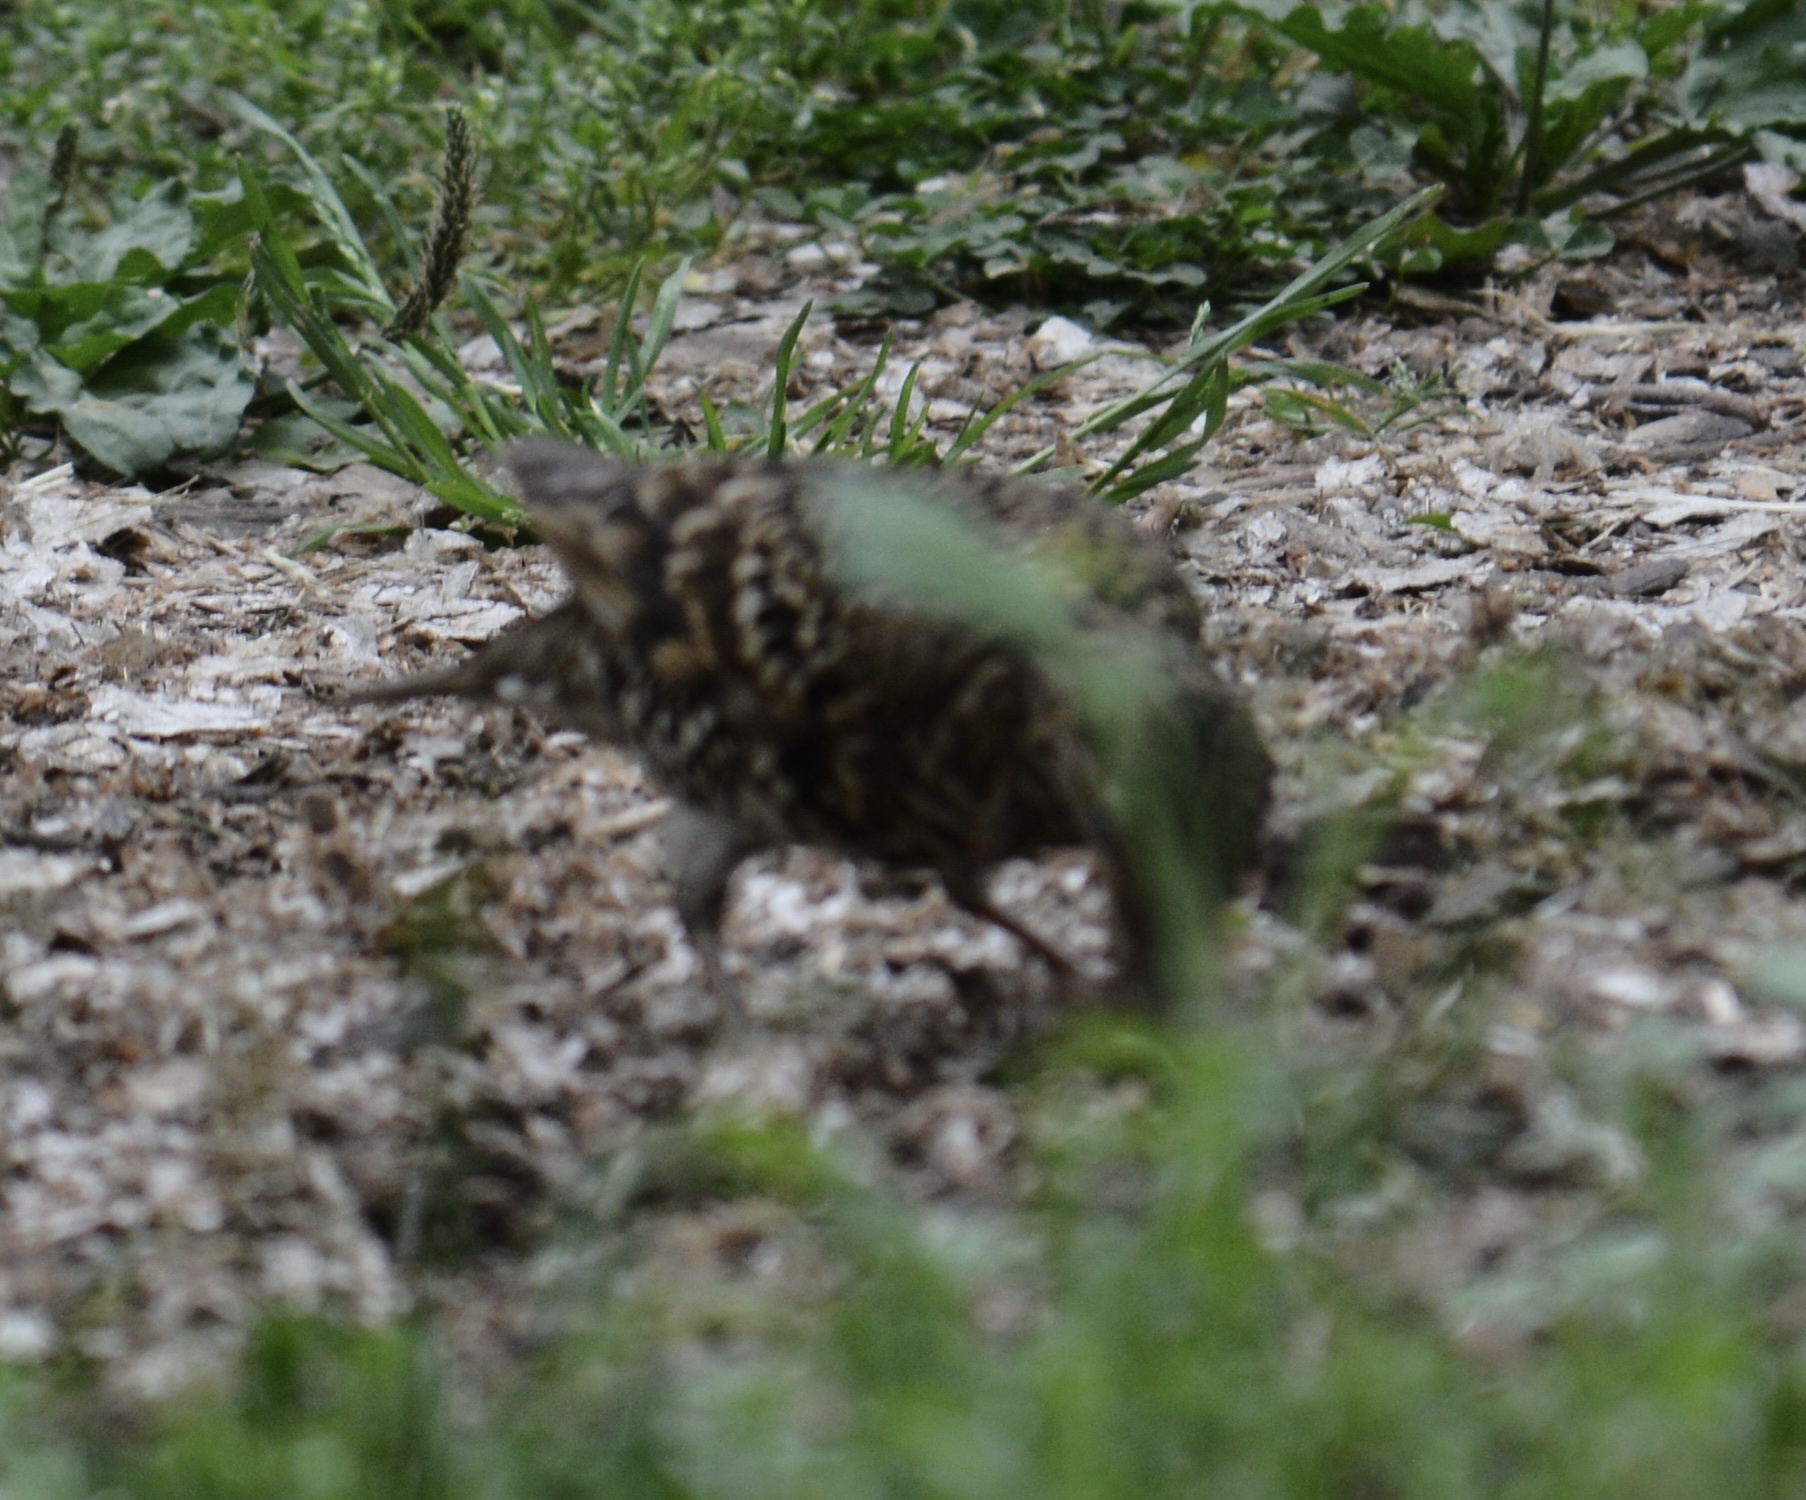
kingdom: Animalia
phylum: Chordata
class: Aves
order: Passeriformes
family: Turdidae
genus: Zoothera
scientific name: Zoothera aurea
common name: White's thrush
